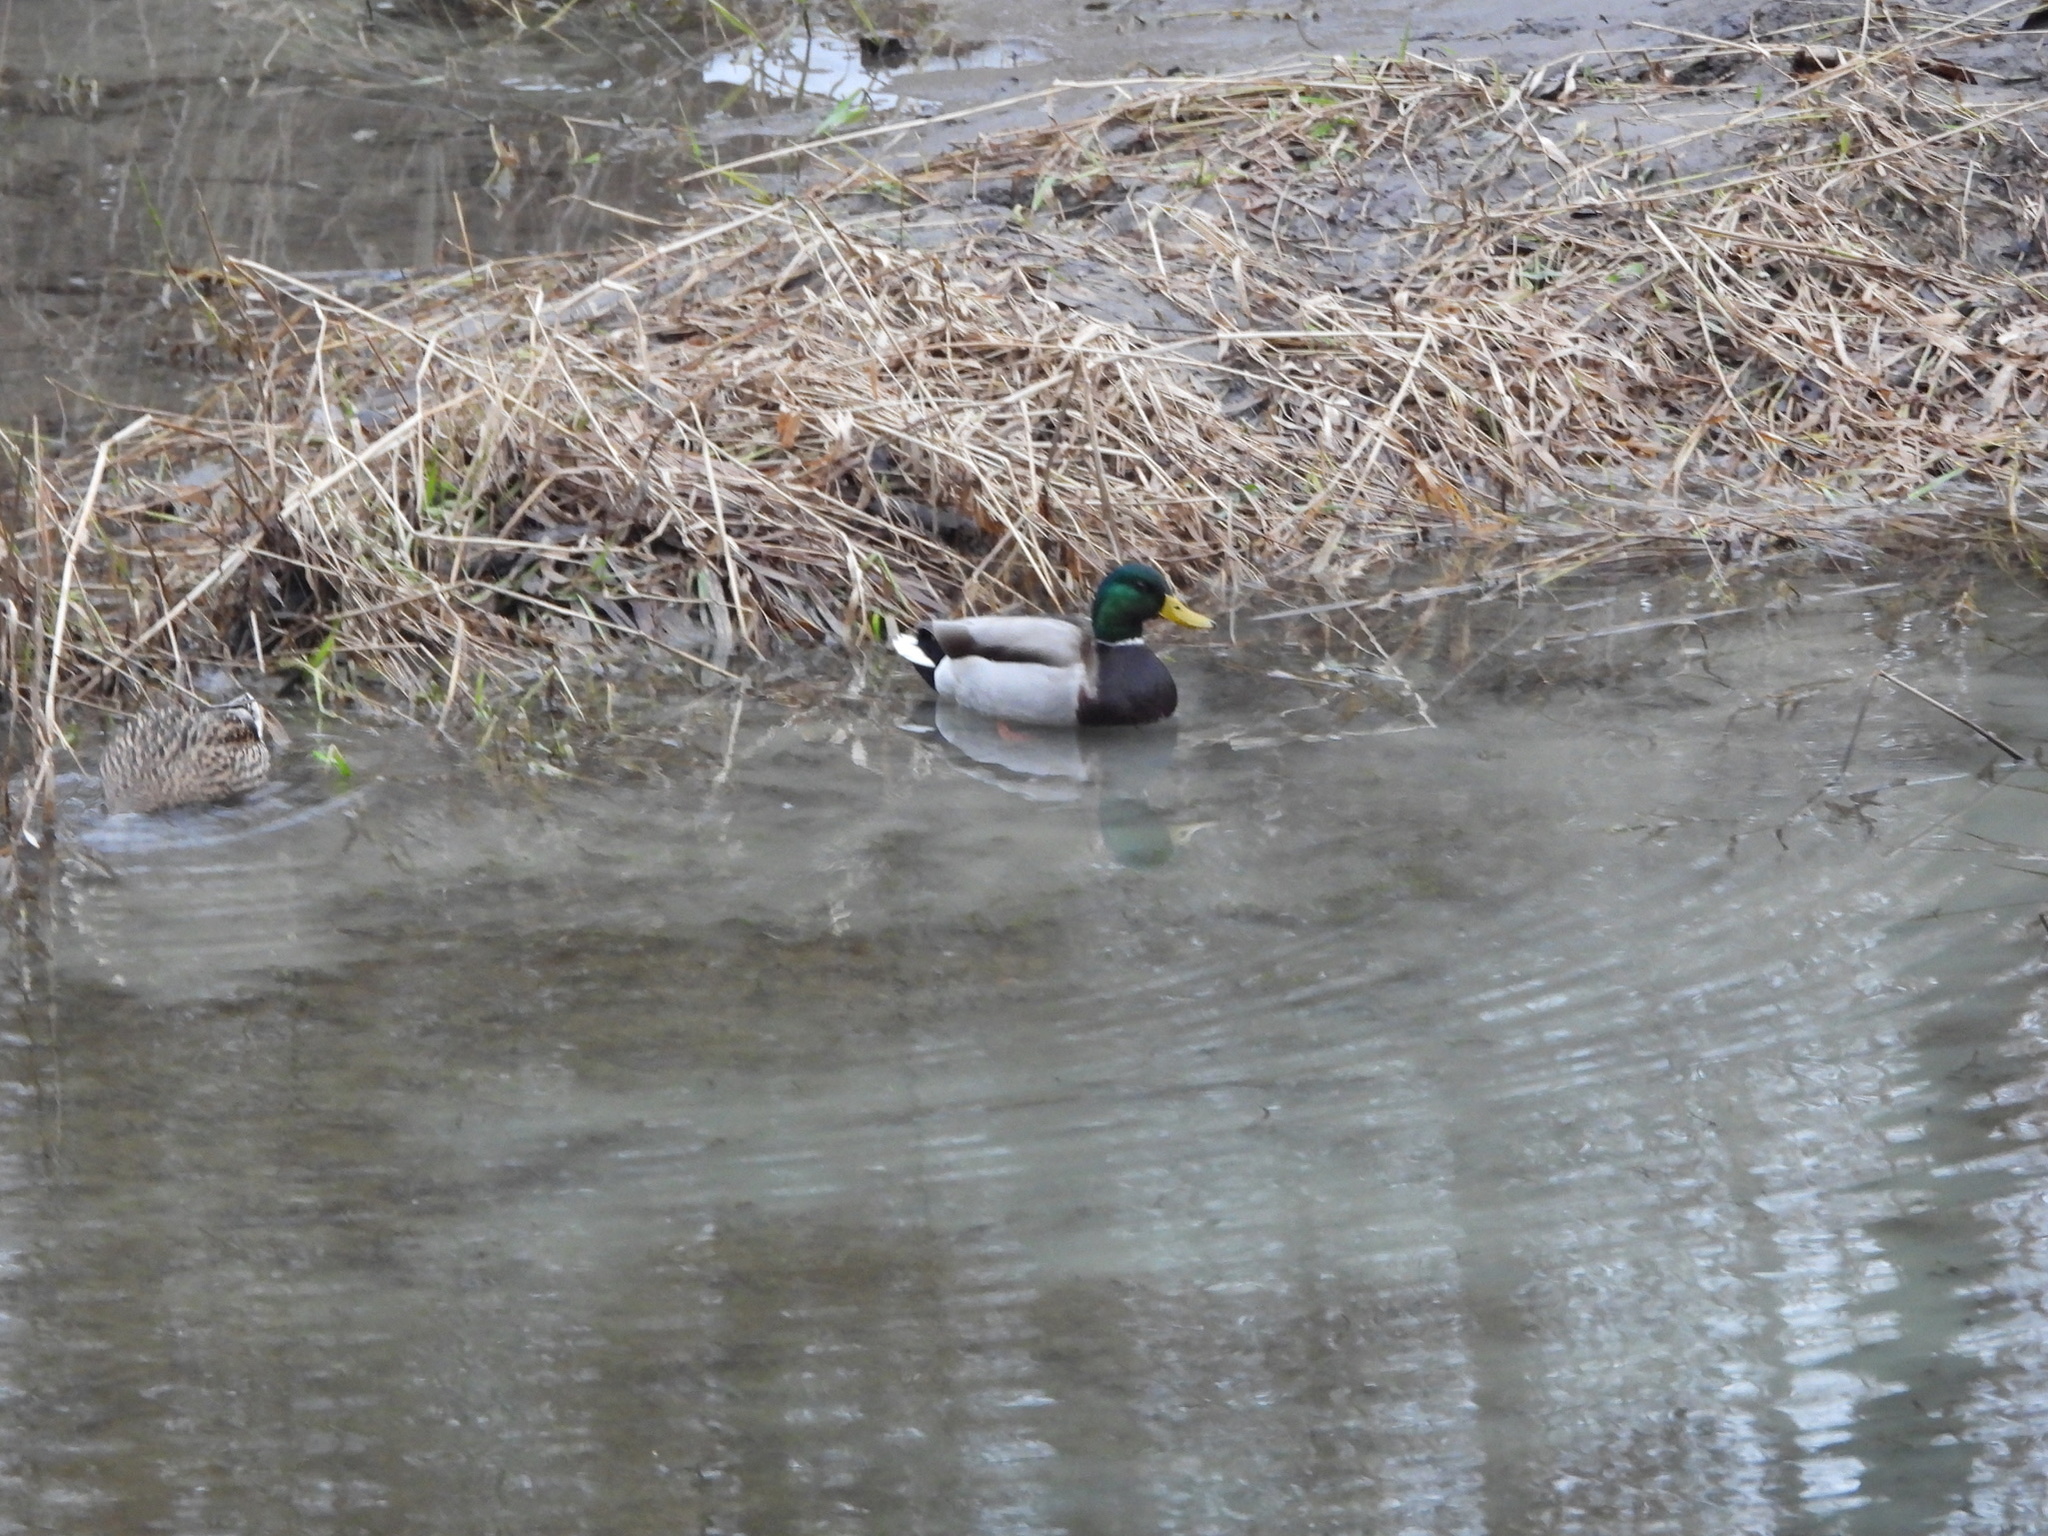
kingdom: Animalia
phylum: Chordata
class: Aves
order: Anseriformes
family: Anatidae
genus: Anas
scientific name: Anas platyrhynchos
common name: Mallard
